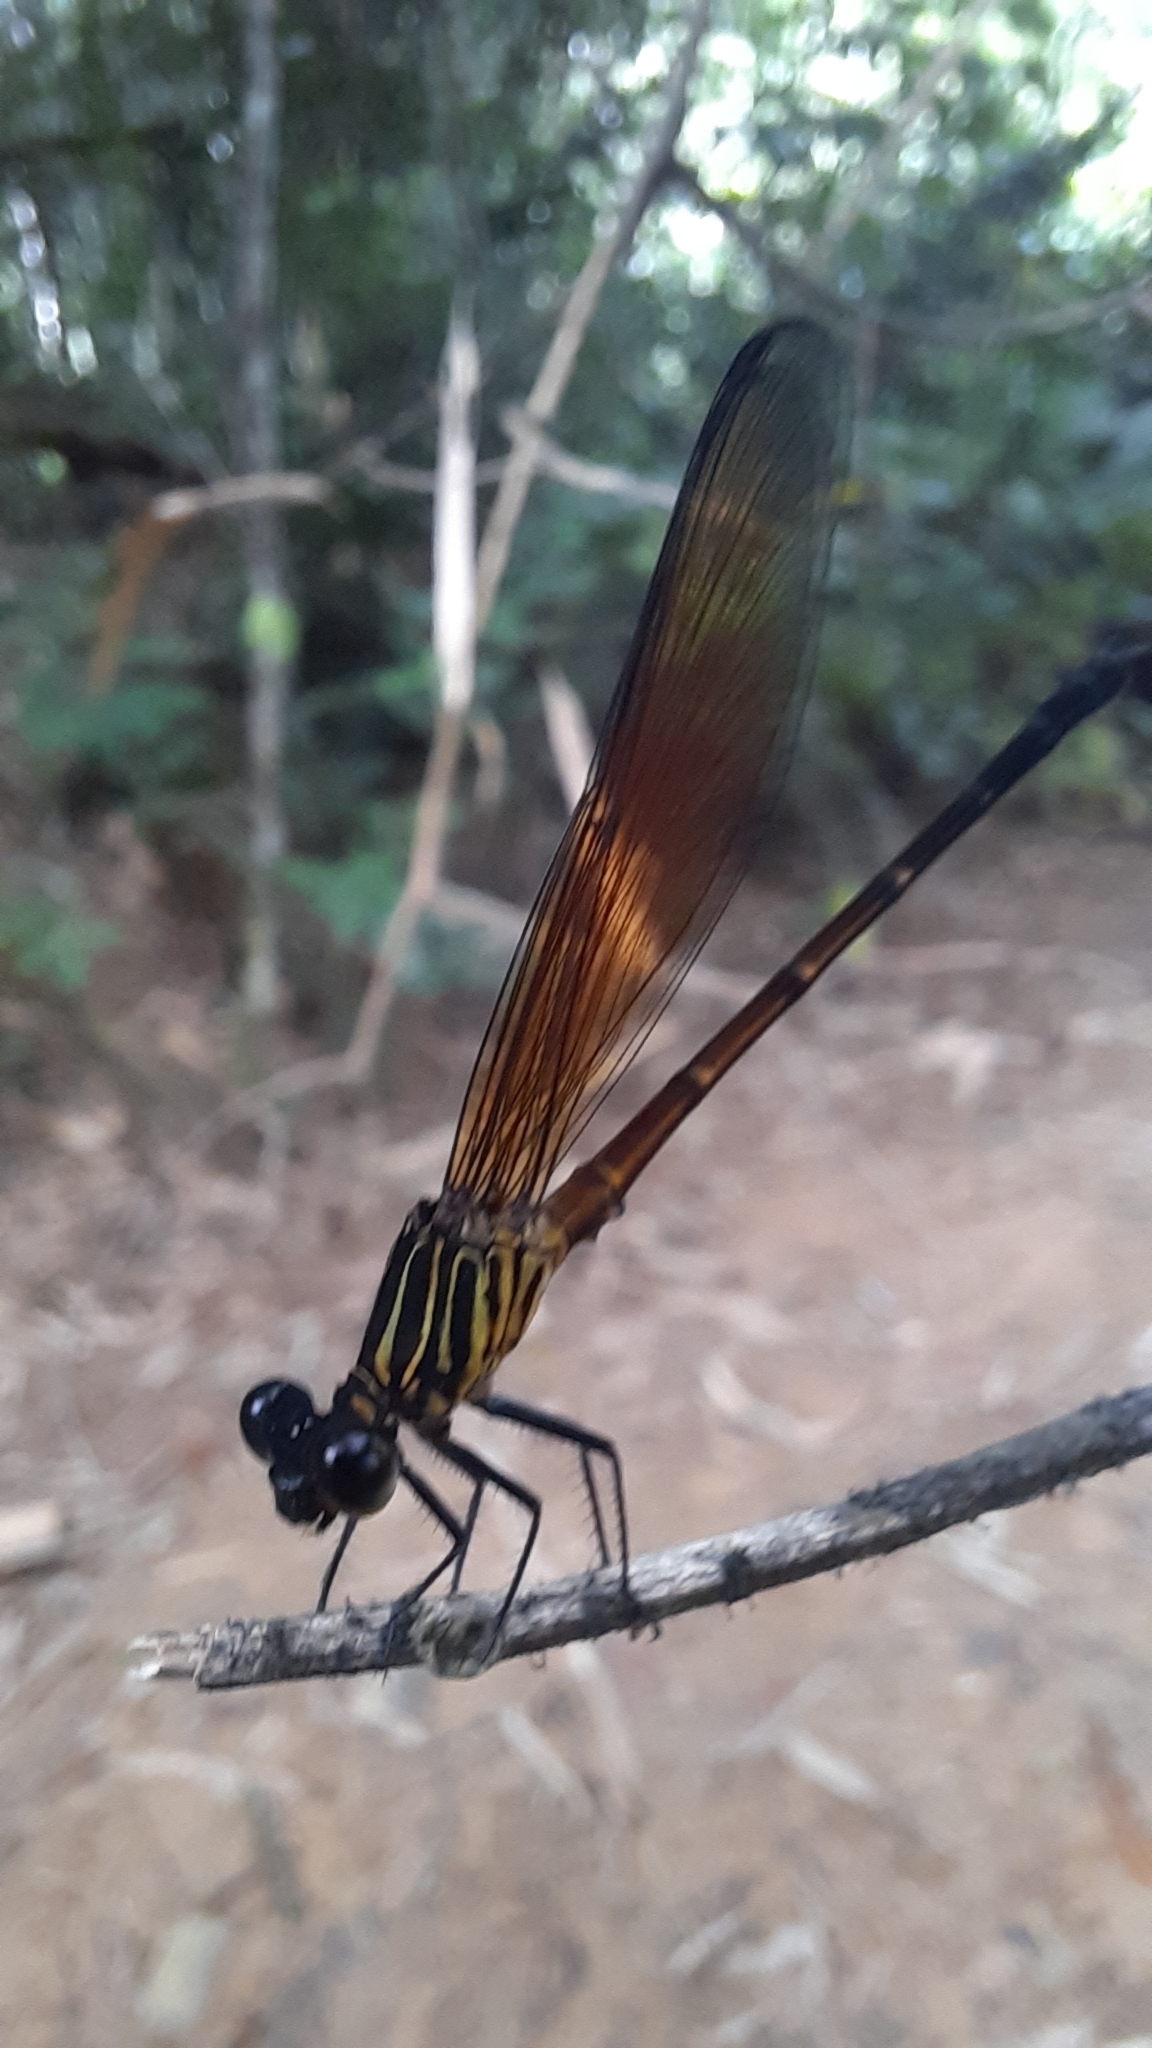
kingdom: Animalia
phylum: Arthropoda
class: Insecta
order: Odonata
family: Euphaeidae
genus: Euphaea
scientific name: Euphaea ochracea
